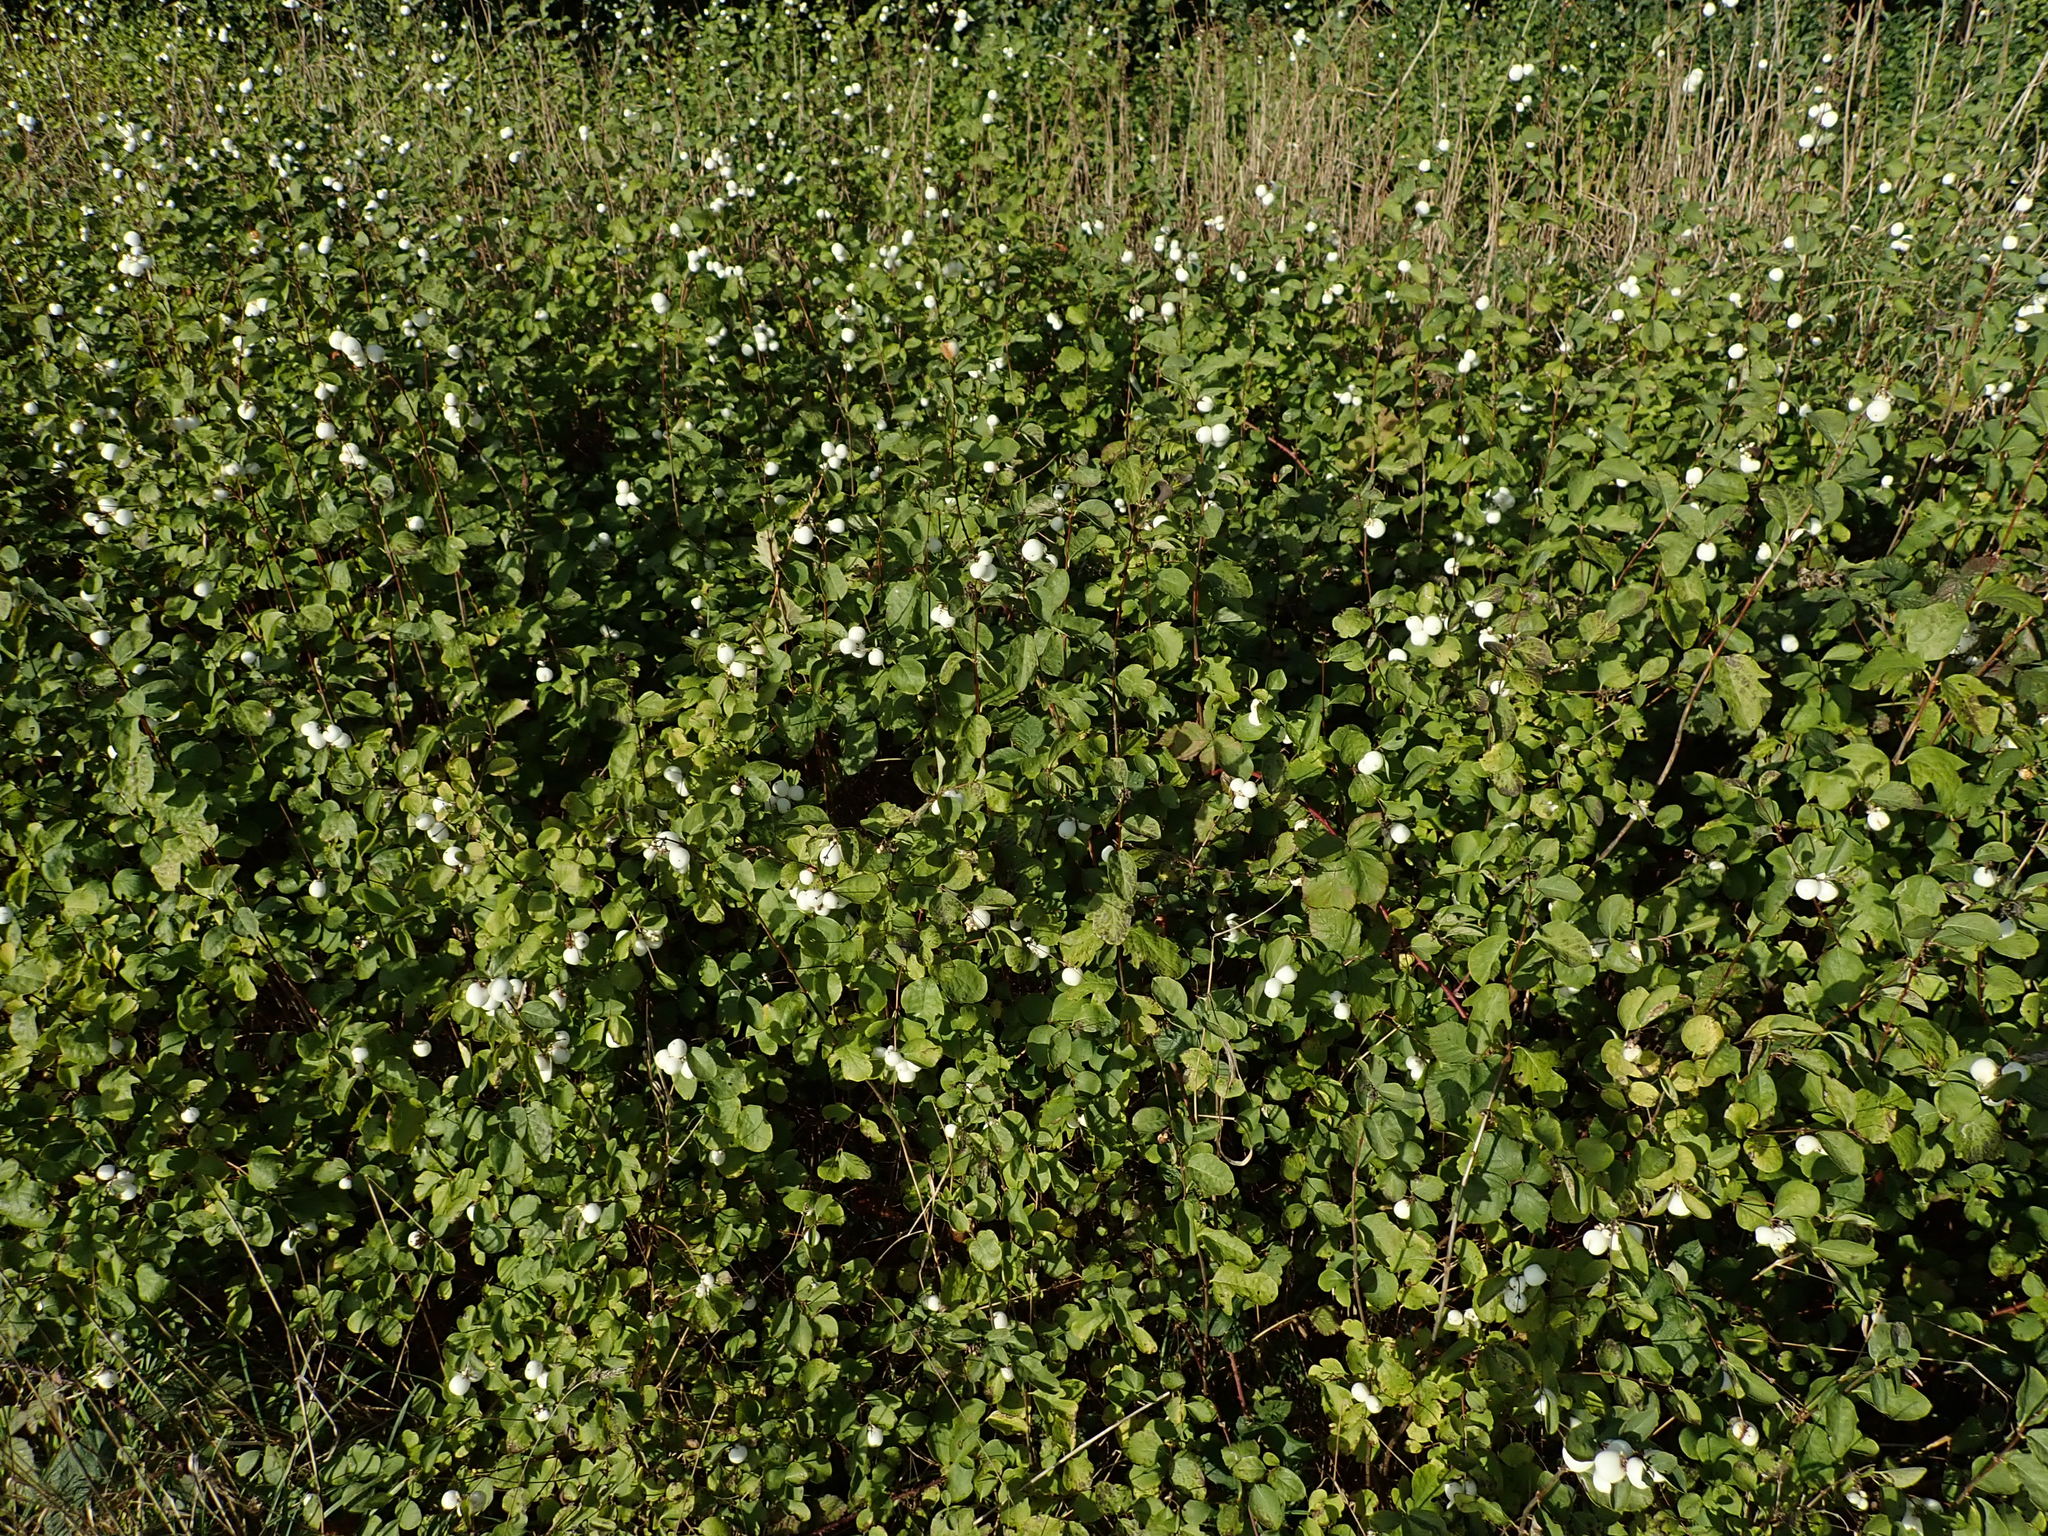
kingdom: Plantae
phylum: Tracheophyta
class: Magnoliopsida
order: Dipsacales
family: Caprifoliaceae
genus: Symphoricarpos
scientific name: Symphoricarpos albus
